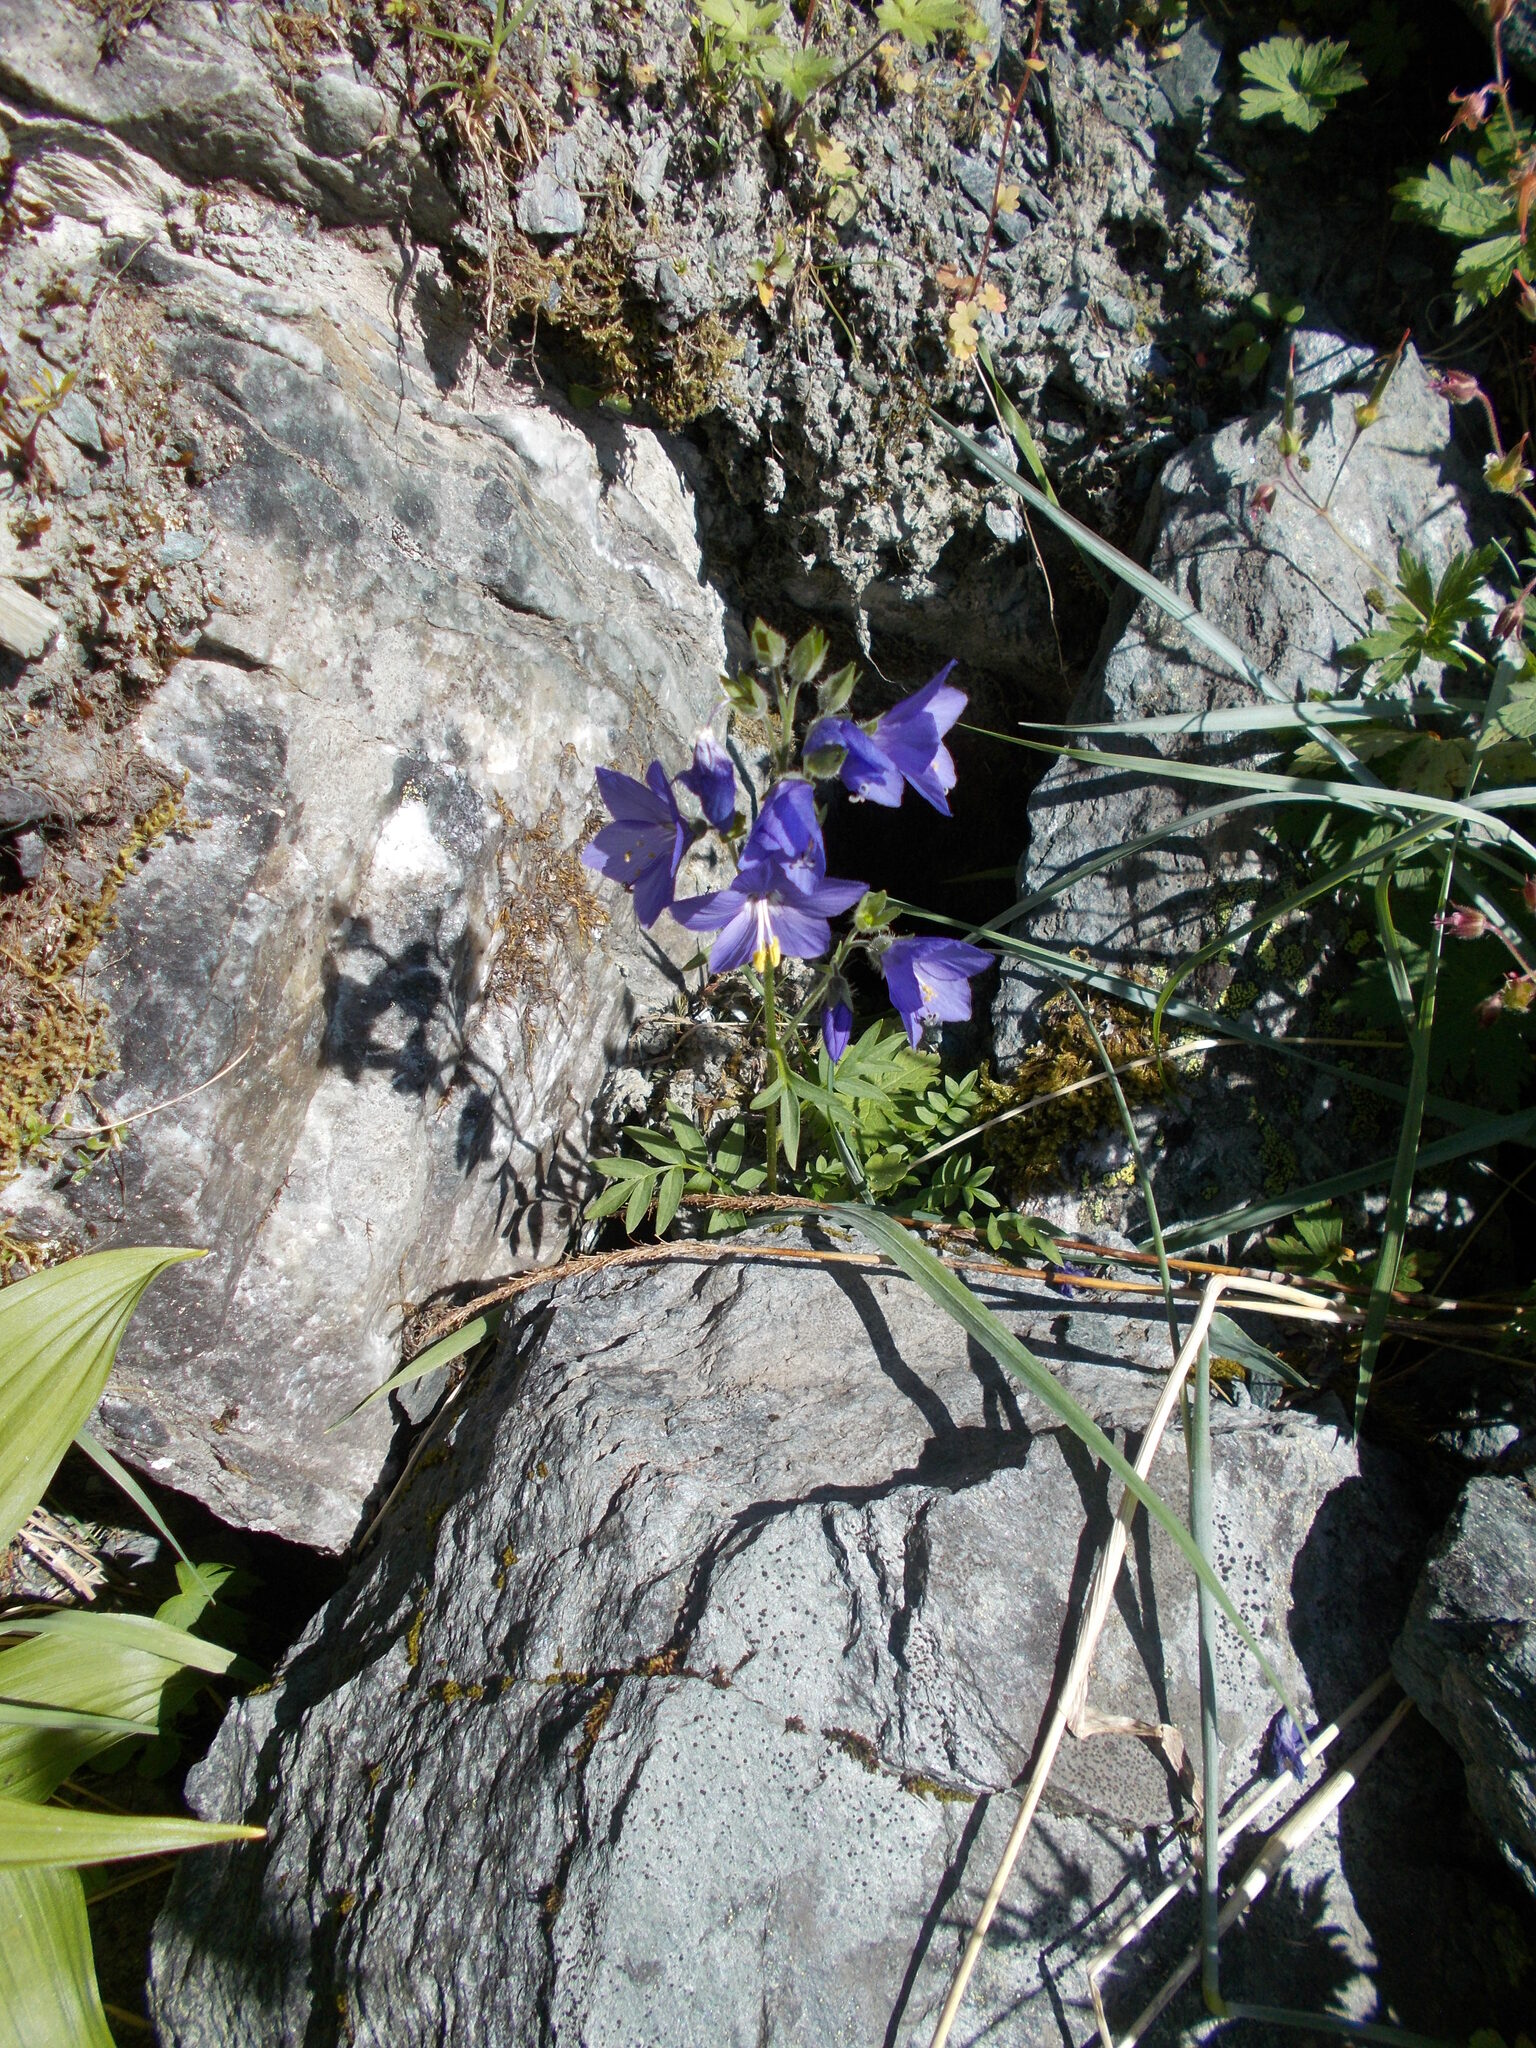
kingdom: Plantae
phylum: Tracheophyta
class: Magnoliopsida
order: Ericales
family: Polemoniaceae
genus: Polemonium
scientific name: Polemonium acutiflorum
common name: Tall jacob's-ladder
